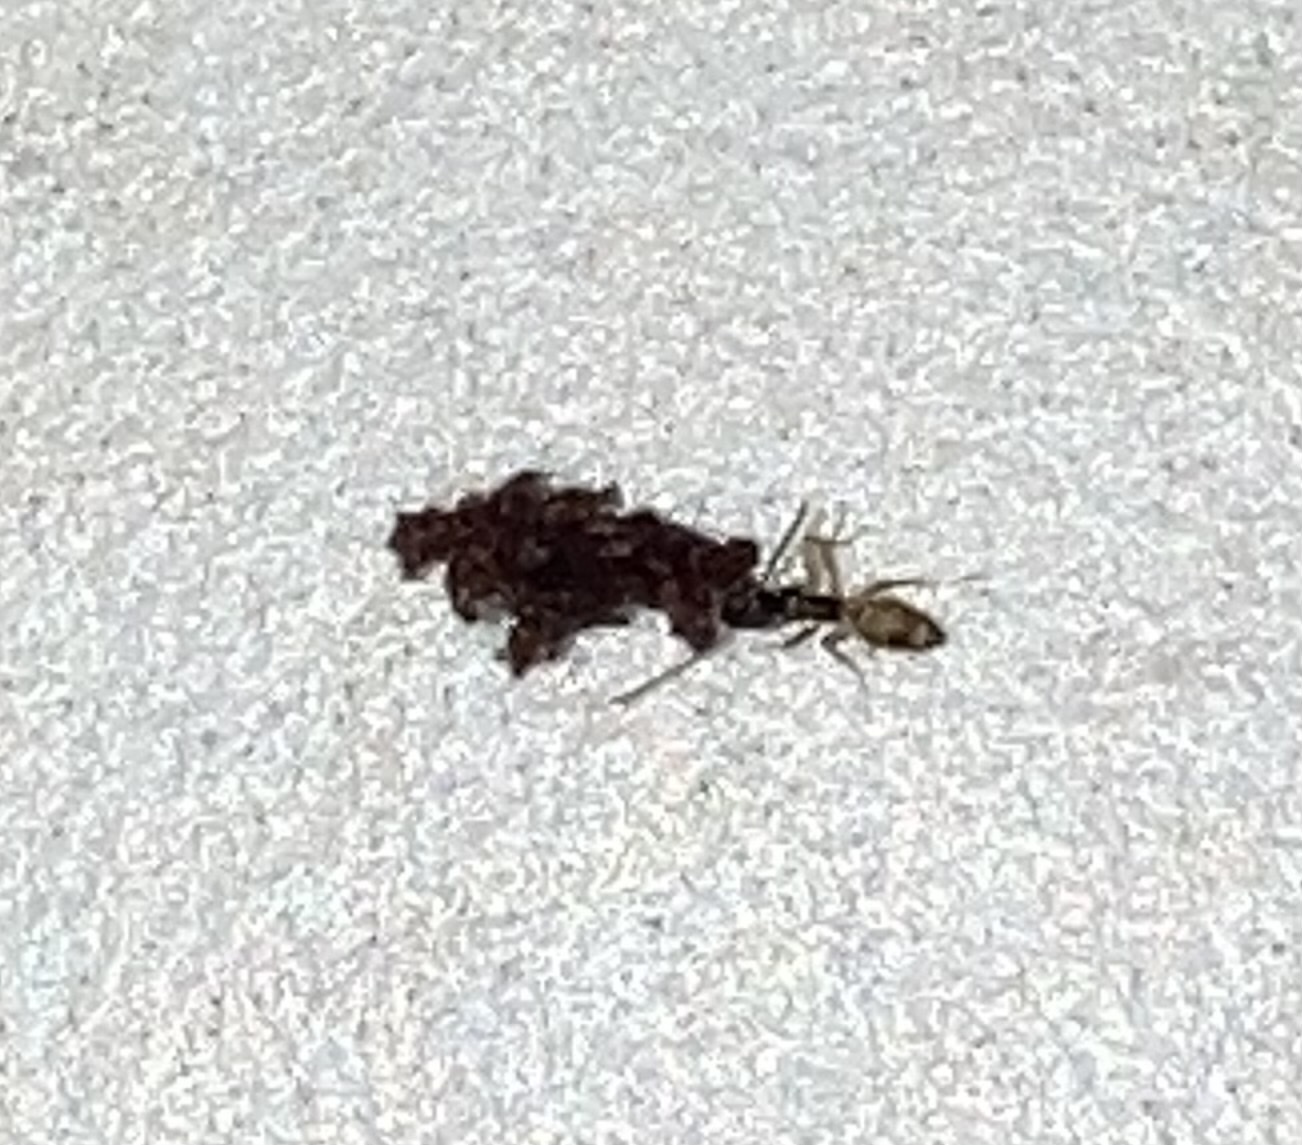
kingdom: Animalia
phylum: Arthropoda
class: Insecta
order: Hymenoptera
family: Formicidae
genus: Tapinoma
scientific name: Tapinoma melanocephalum
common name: Ghost ant
